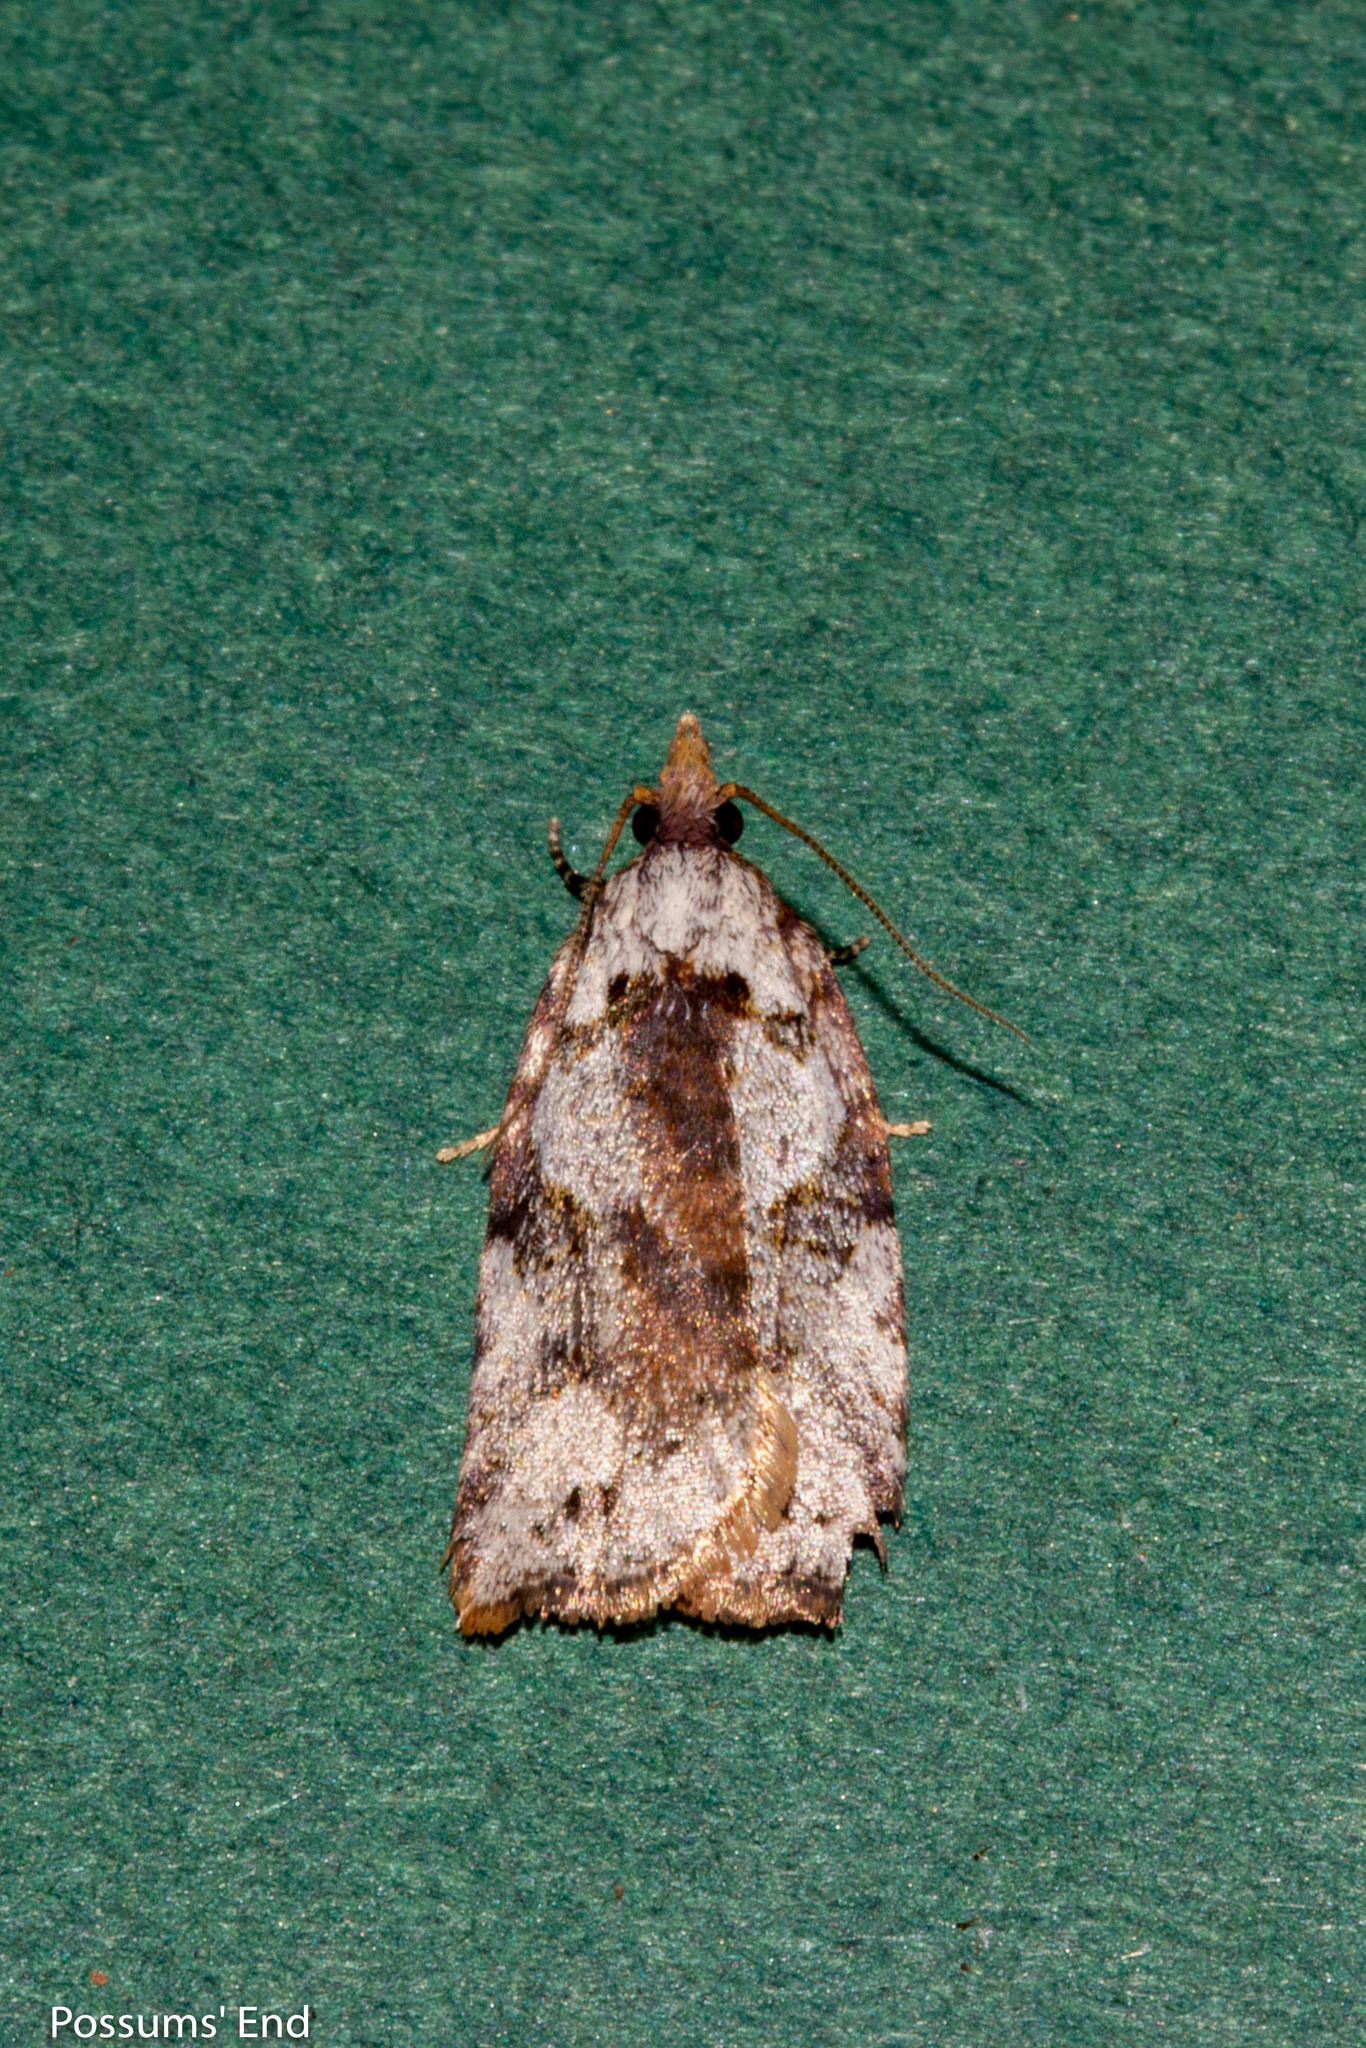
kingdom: Animalia
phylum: Arthropoda
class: Insecta
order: Lepidoptera
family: Tortricidae
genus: Ctenopseustis
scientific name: Ctenopseustis obliquana
